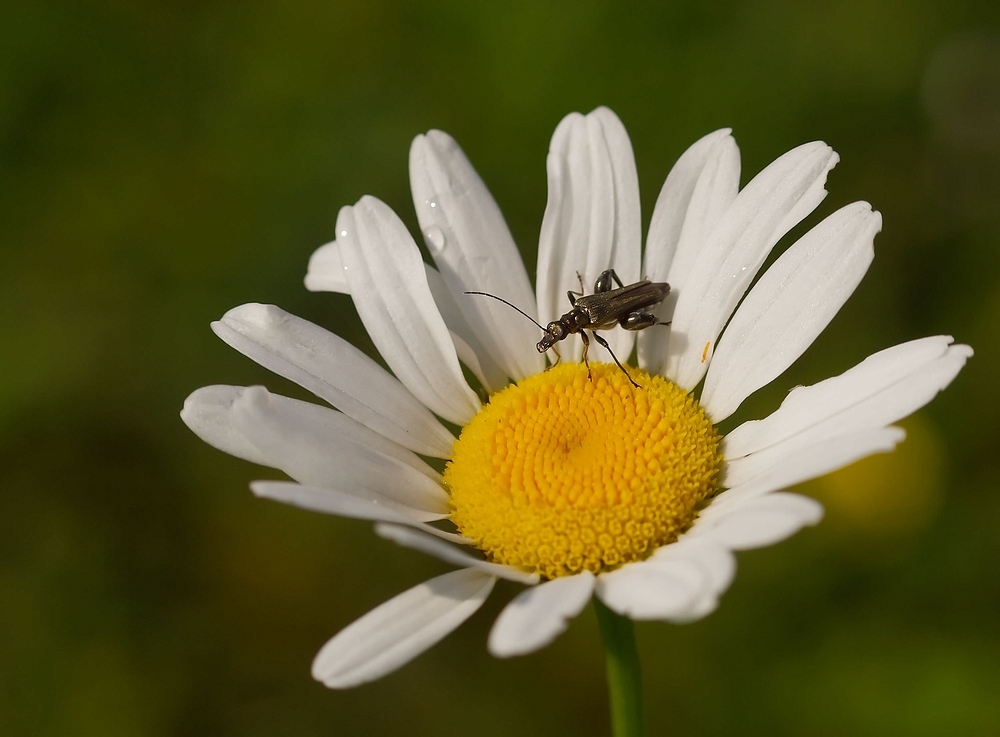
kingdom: Animalia
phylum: Arthropoda
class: Insecta
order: Coleoptera
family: Oedemeridae
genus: Oedemera
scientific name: Oedemera nobilis
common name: Swollen-thighed beetle
